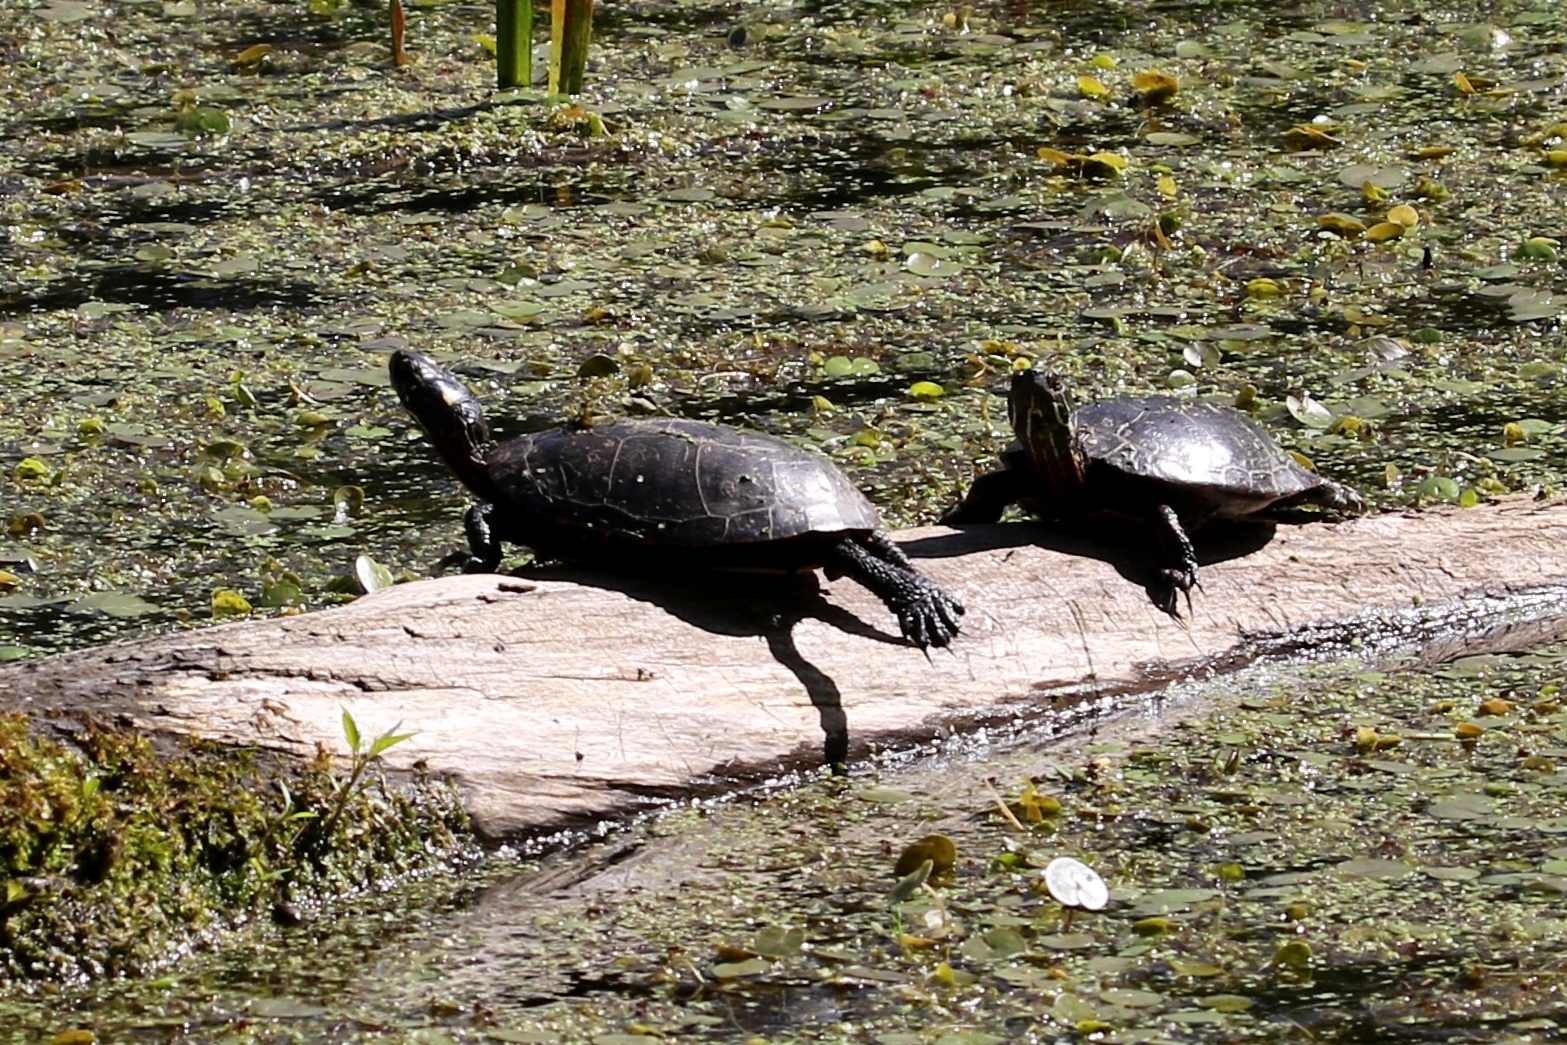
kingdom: Animalia
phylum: Chordata
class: Testudines
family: Emydidae
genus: Chrysemys
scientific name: Chrysemys picta
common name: Painted turtle
